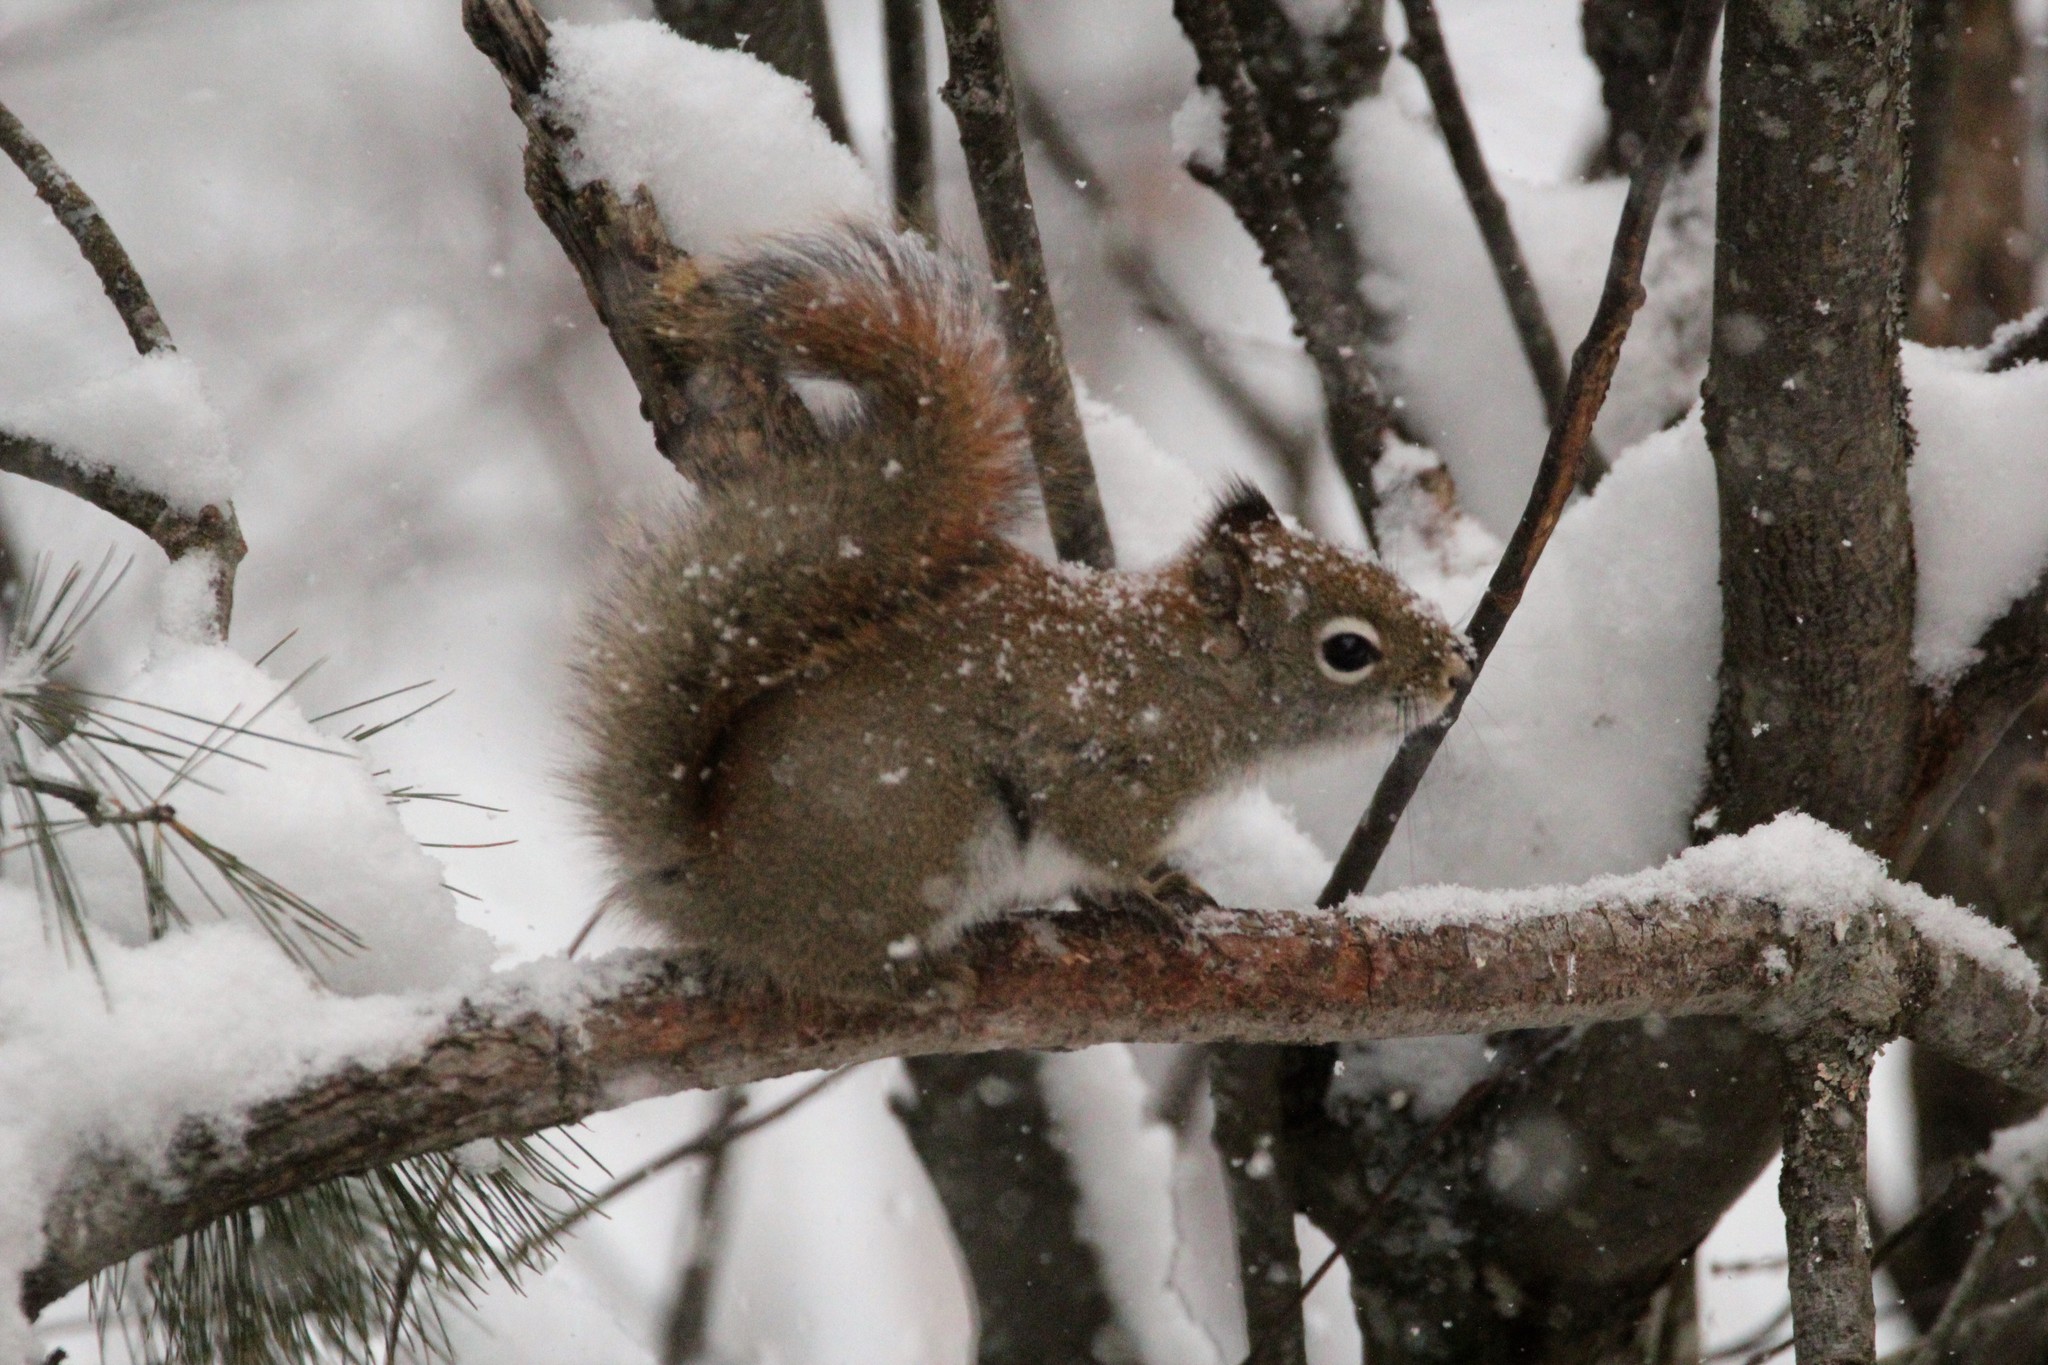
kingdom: Animalia
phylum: Chordata
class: Mammalia
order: Rodentia
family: Sciuridae
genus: Tamiasciurus
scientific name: Tamiasciurus hudsonicus
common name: Red squirrel
